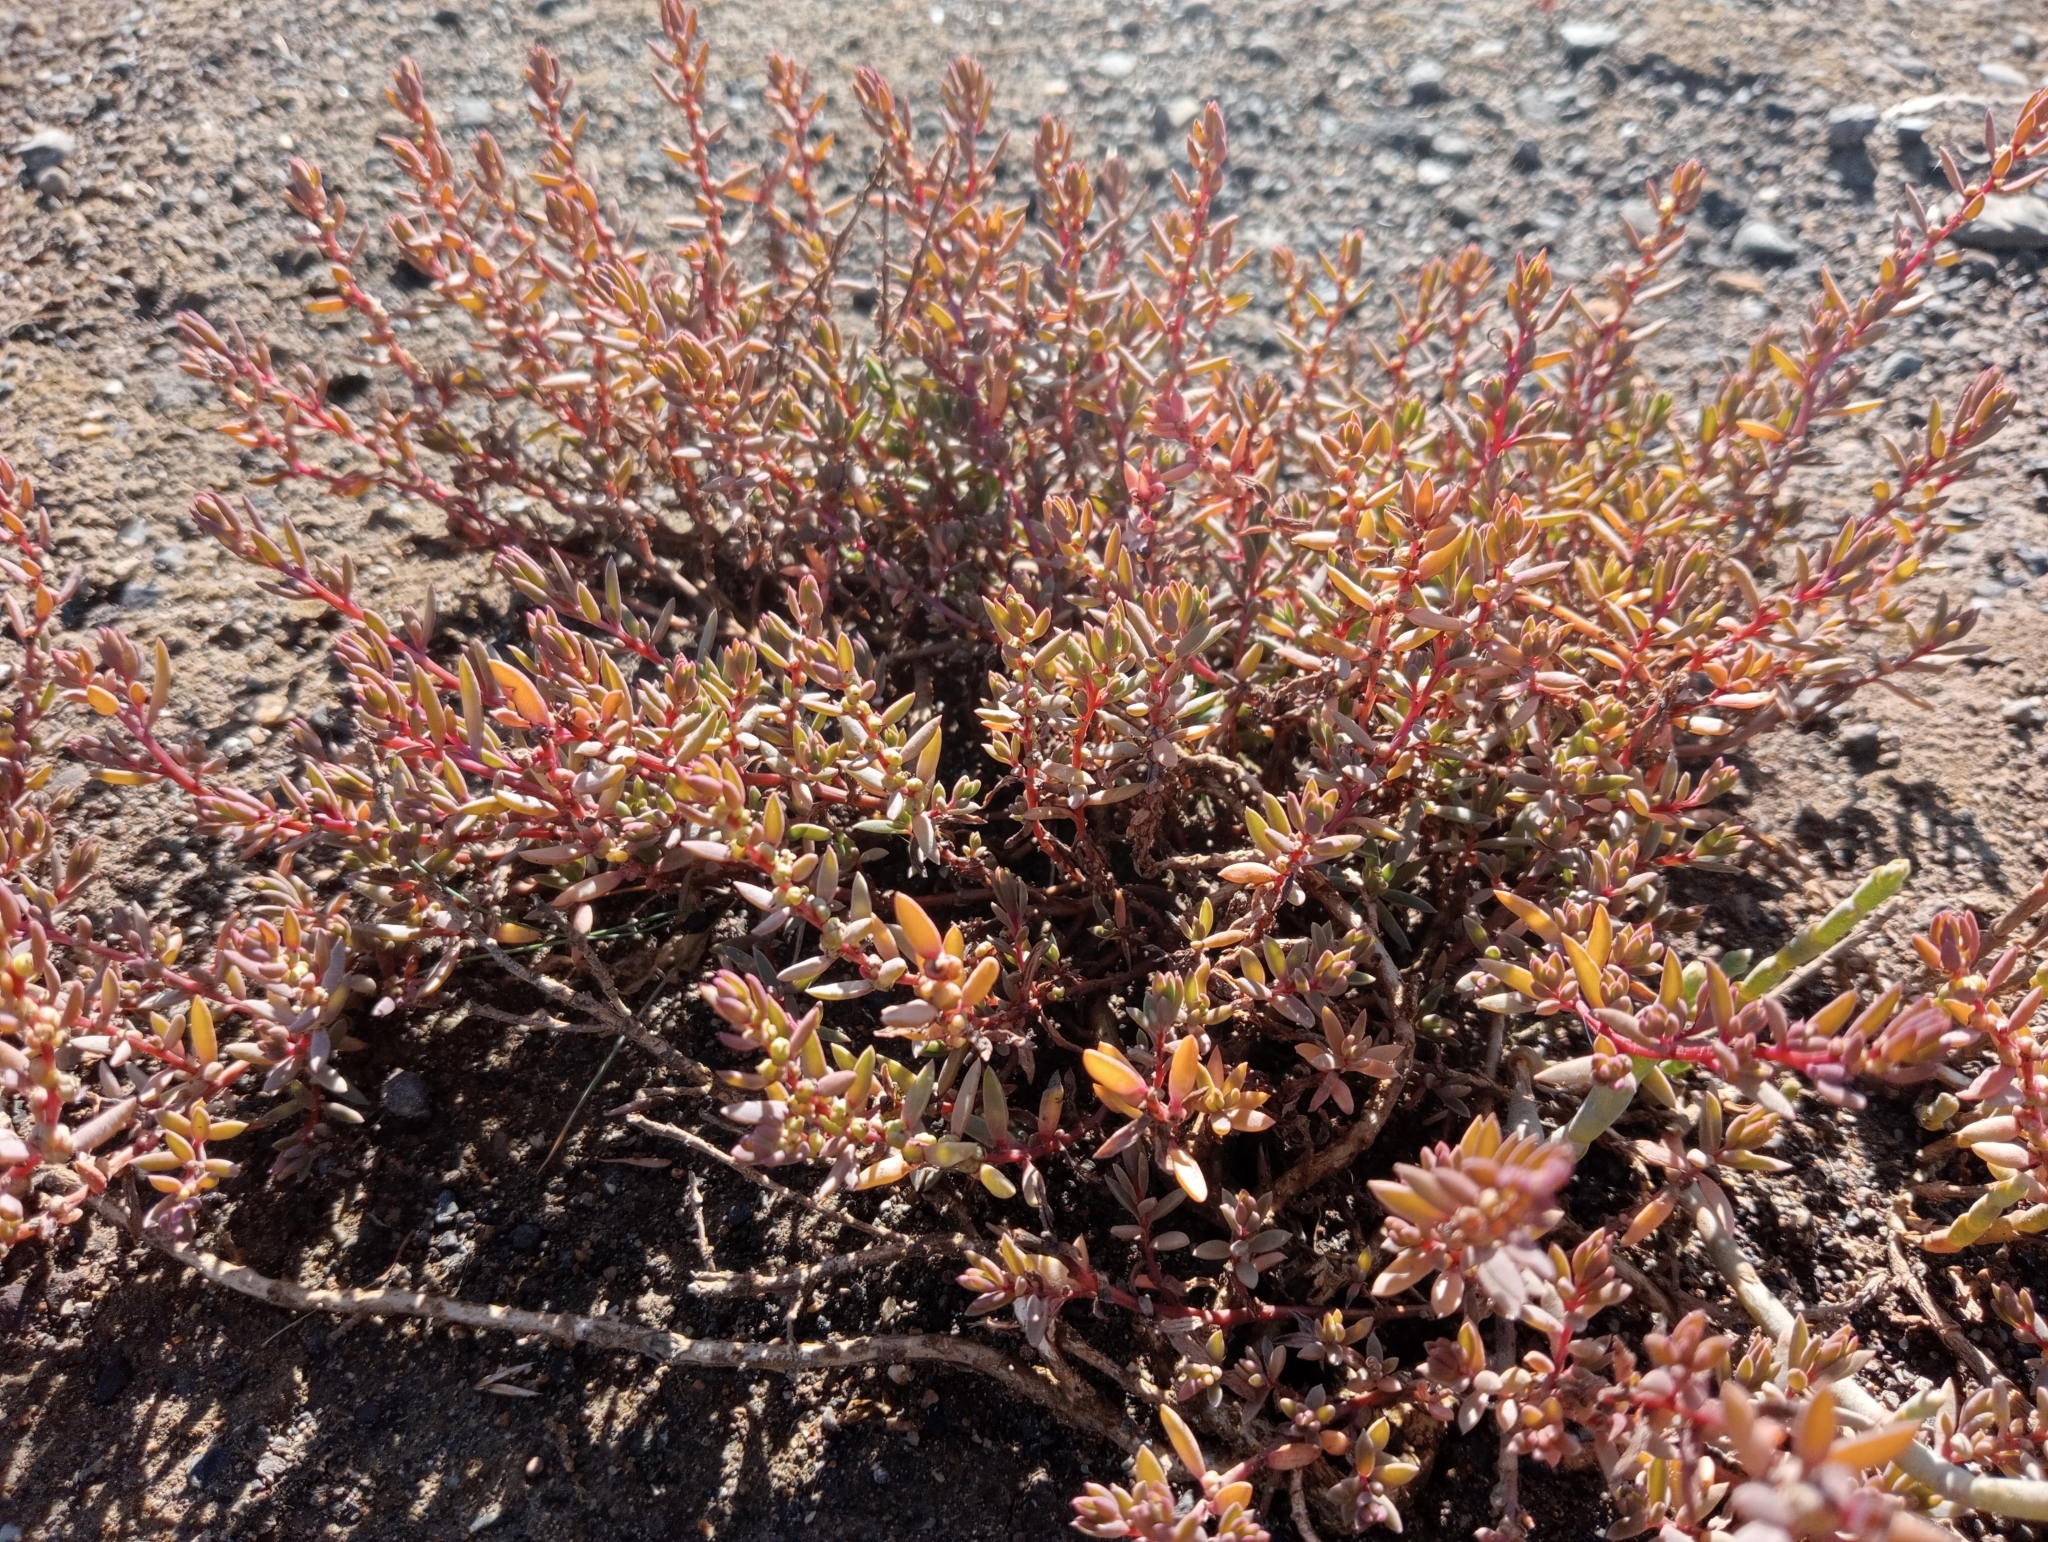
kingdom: Plantae
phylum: Tracheophyta
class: Magnoliopsida
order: Caryophyllales
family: Amaranthaceae
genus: Suaeda
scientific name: Suaeda novae-zelandiae
